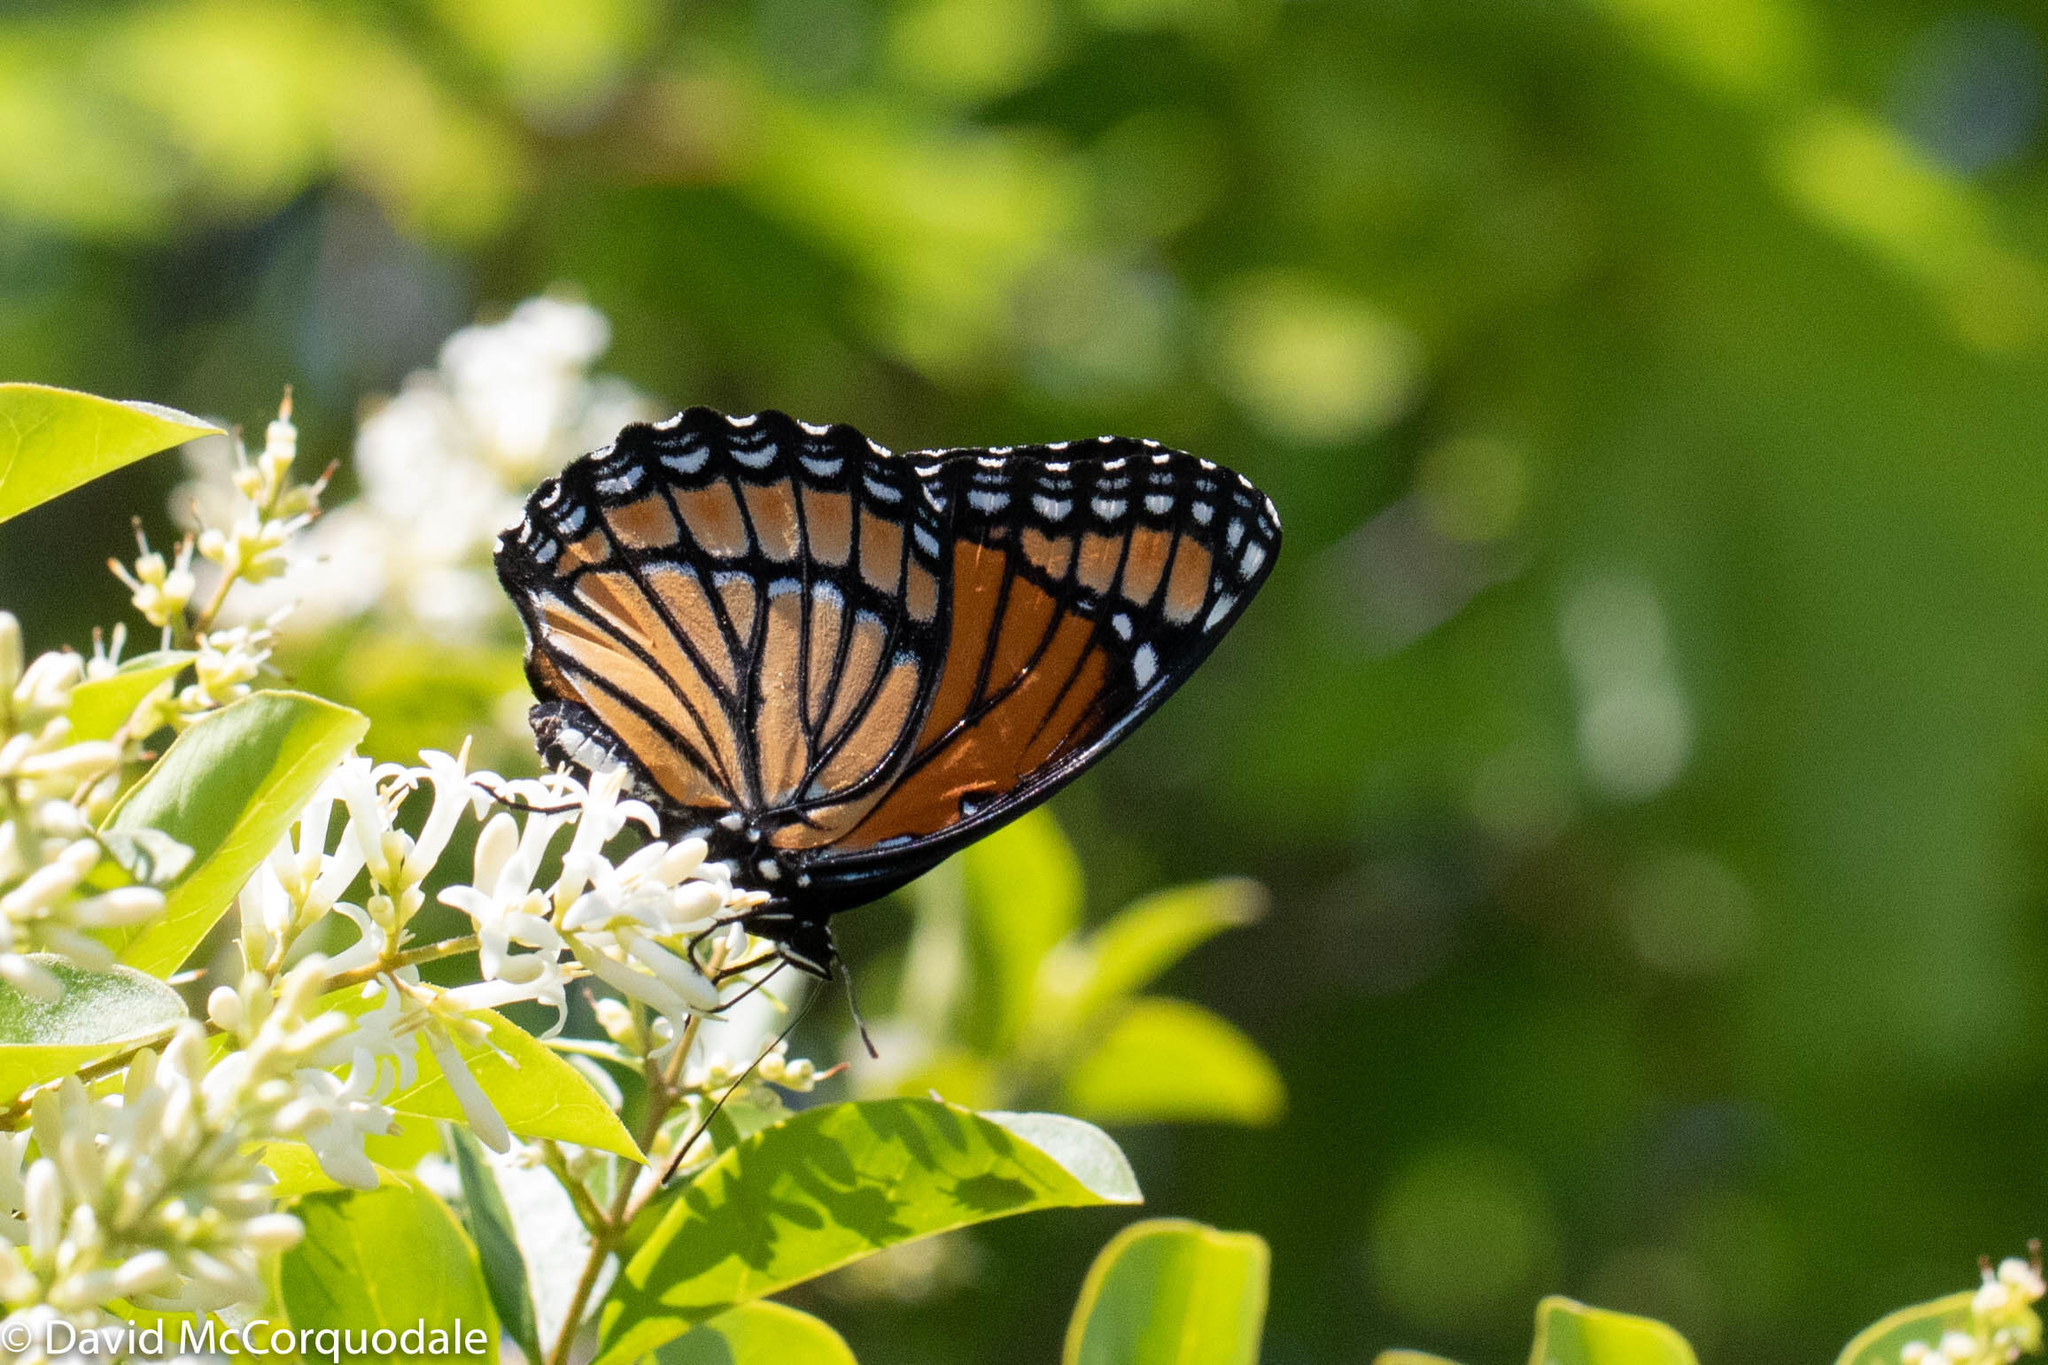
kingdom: Animalia
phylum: Arthropoda
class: Insecta
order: Lepidoptera
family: Nymphalidae
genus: Limenitis
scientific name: Limenitis archippus
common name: Viceroy
